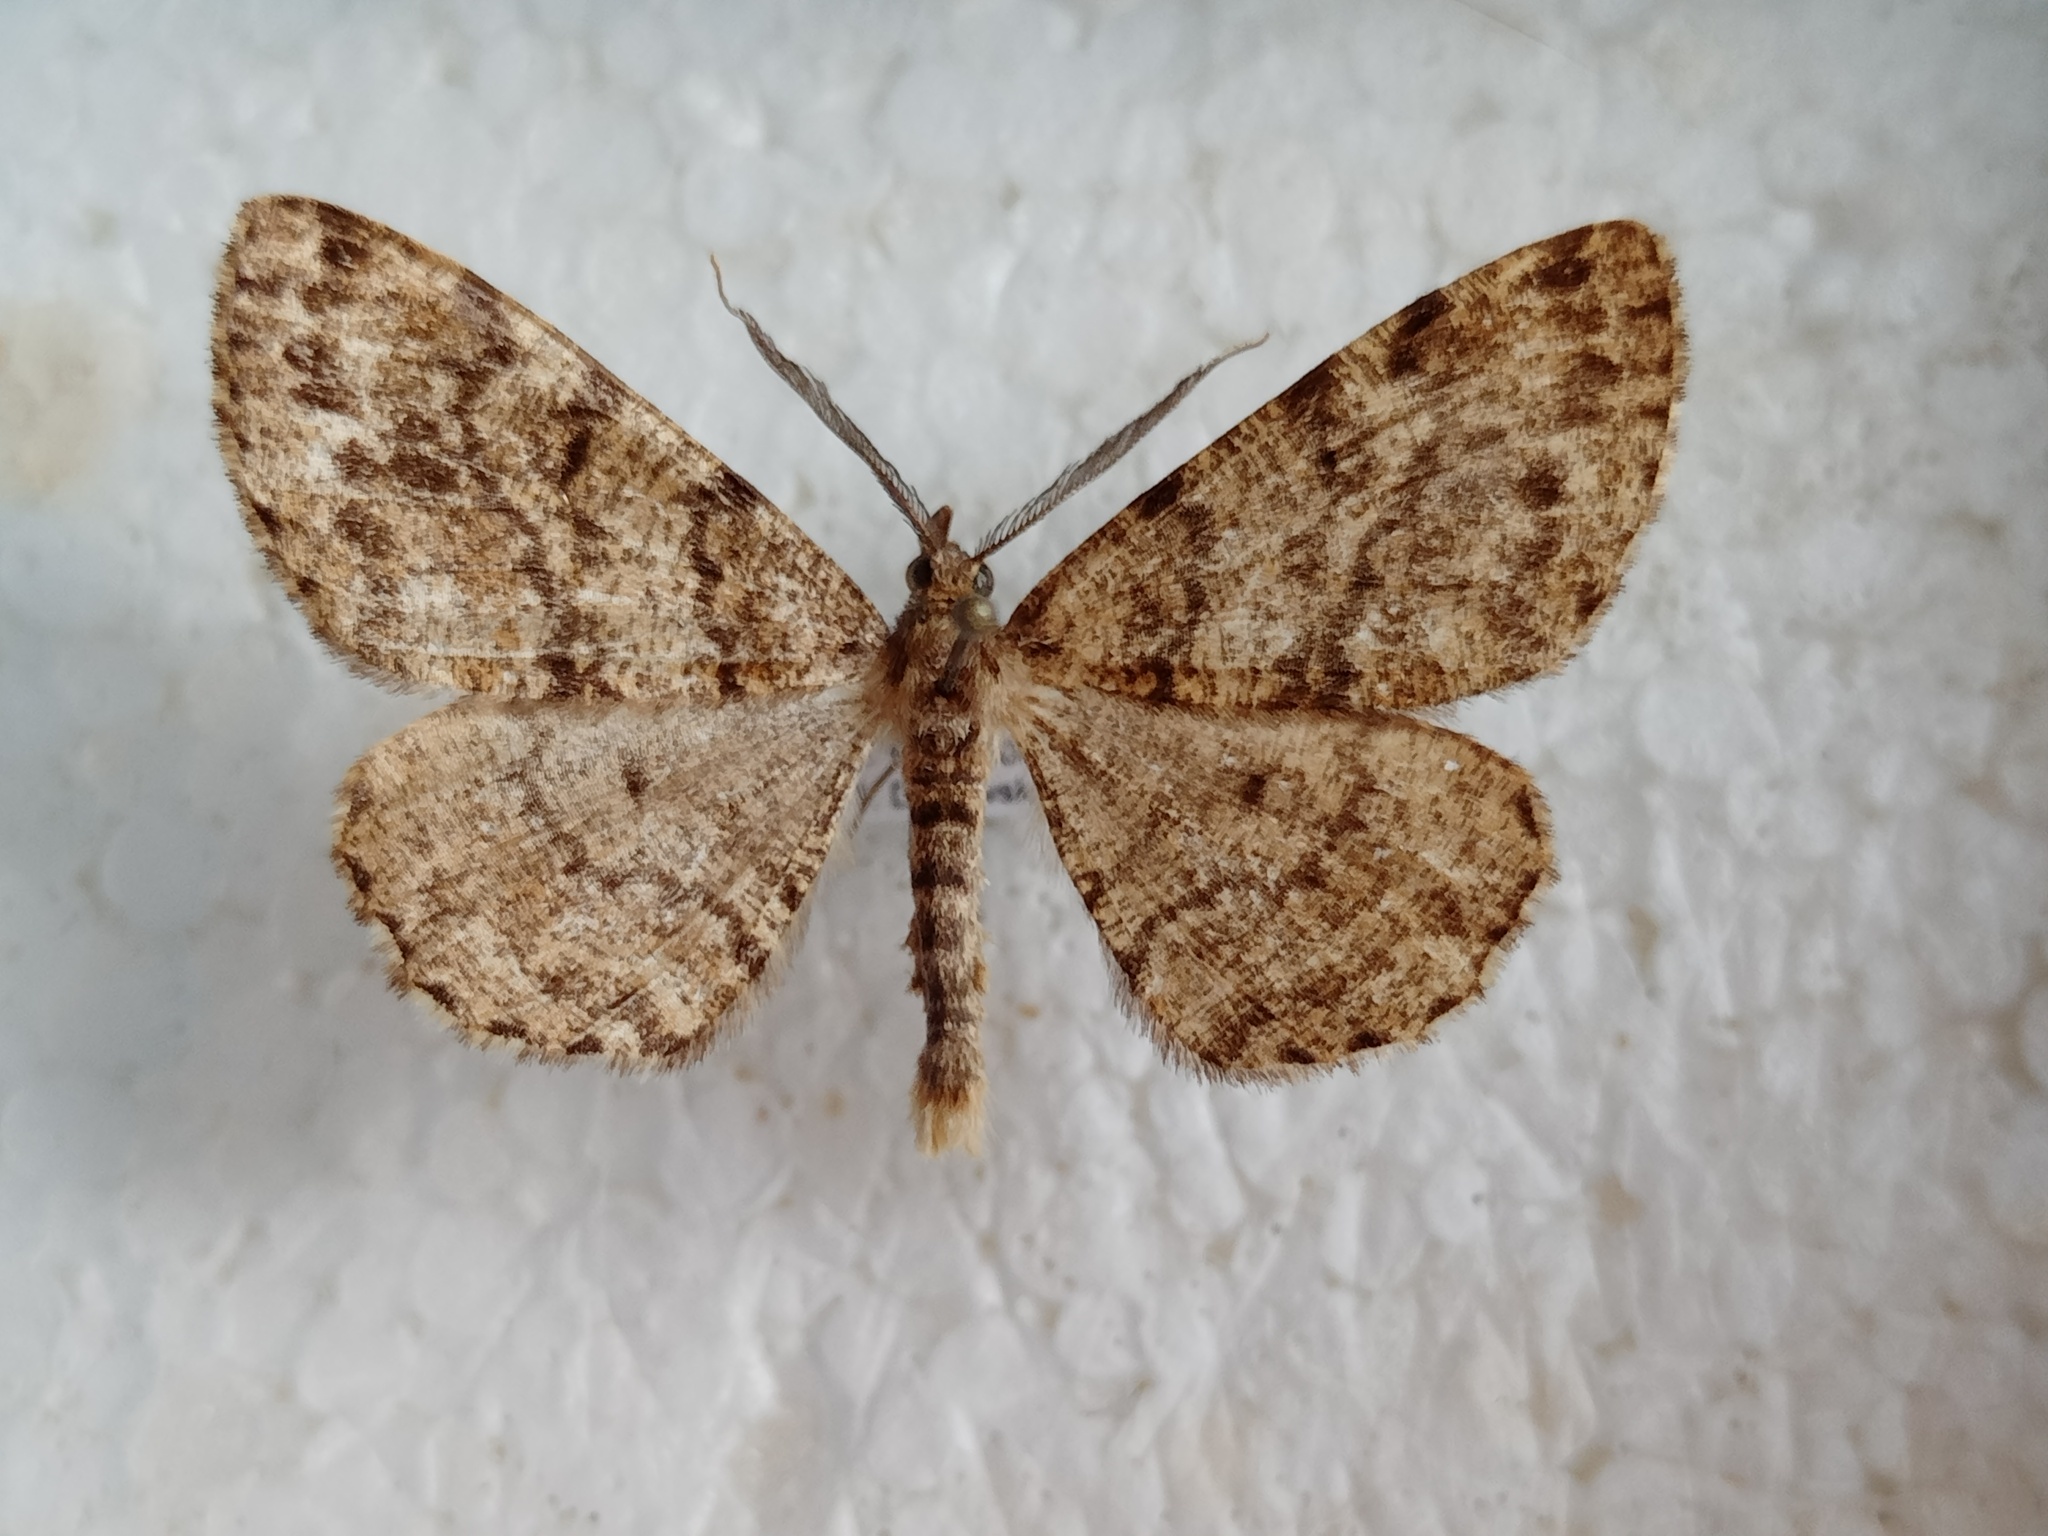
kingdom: Animalia
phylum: Arthropoda
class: Insecta
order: Lepidoptera
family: Geometridae
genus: Deileptenia
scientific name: Deileptenia ribeata
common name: Satin beauty
